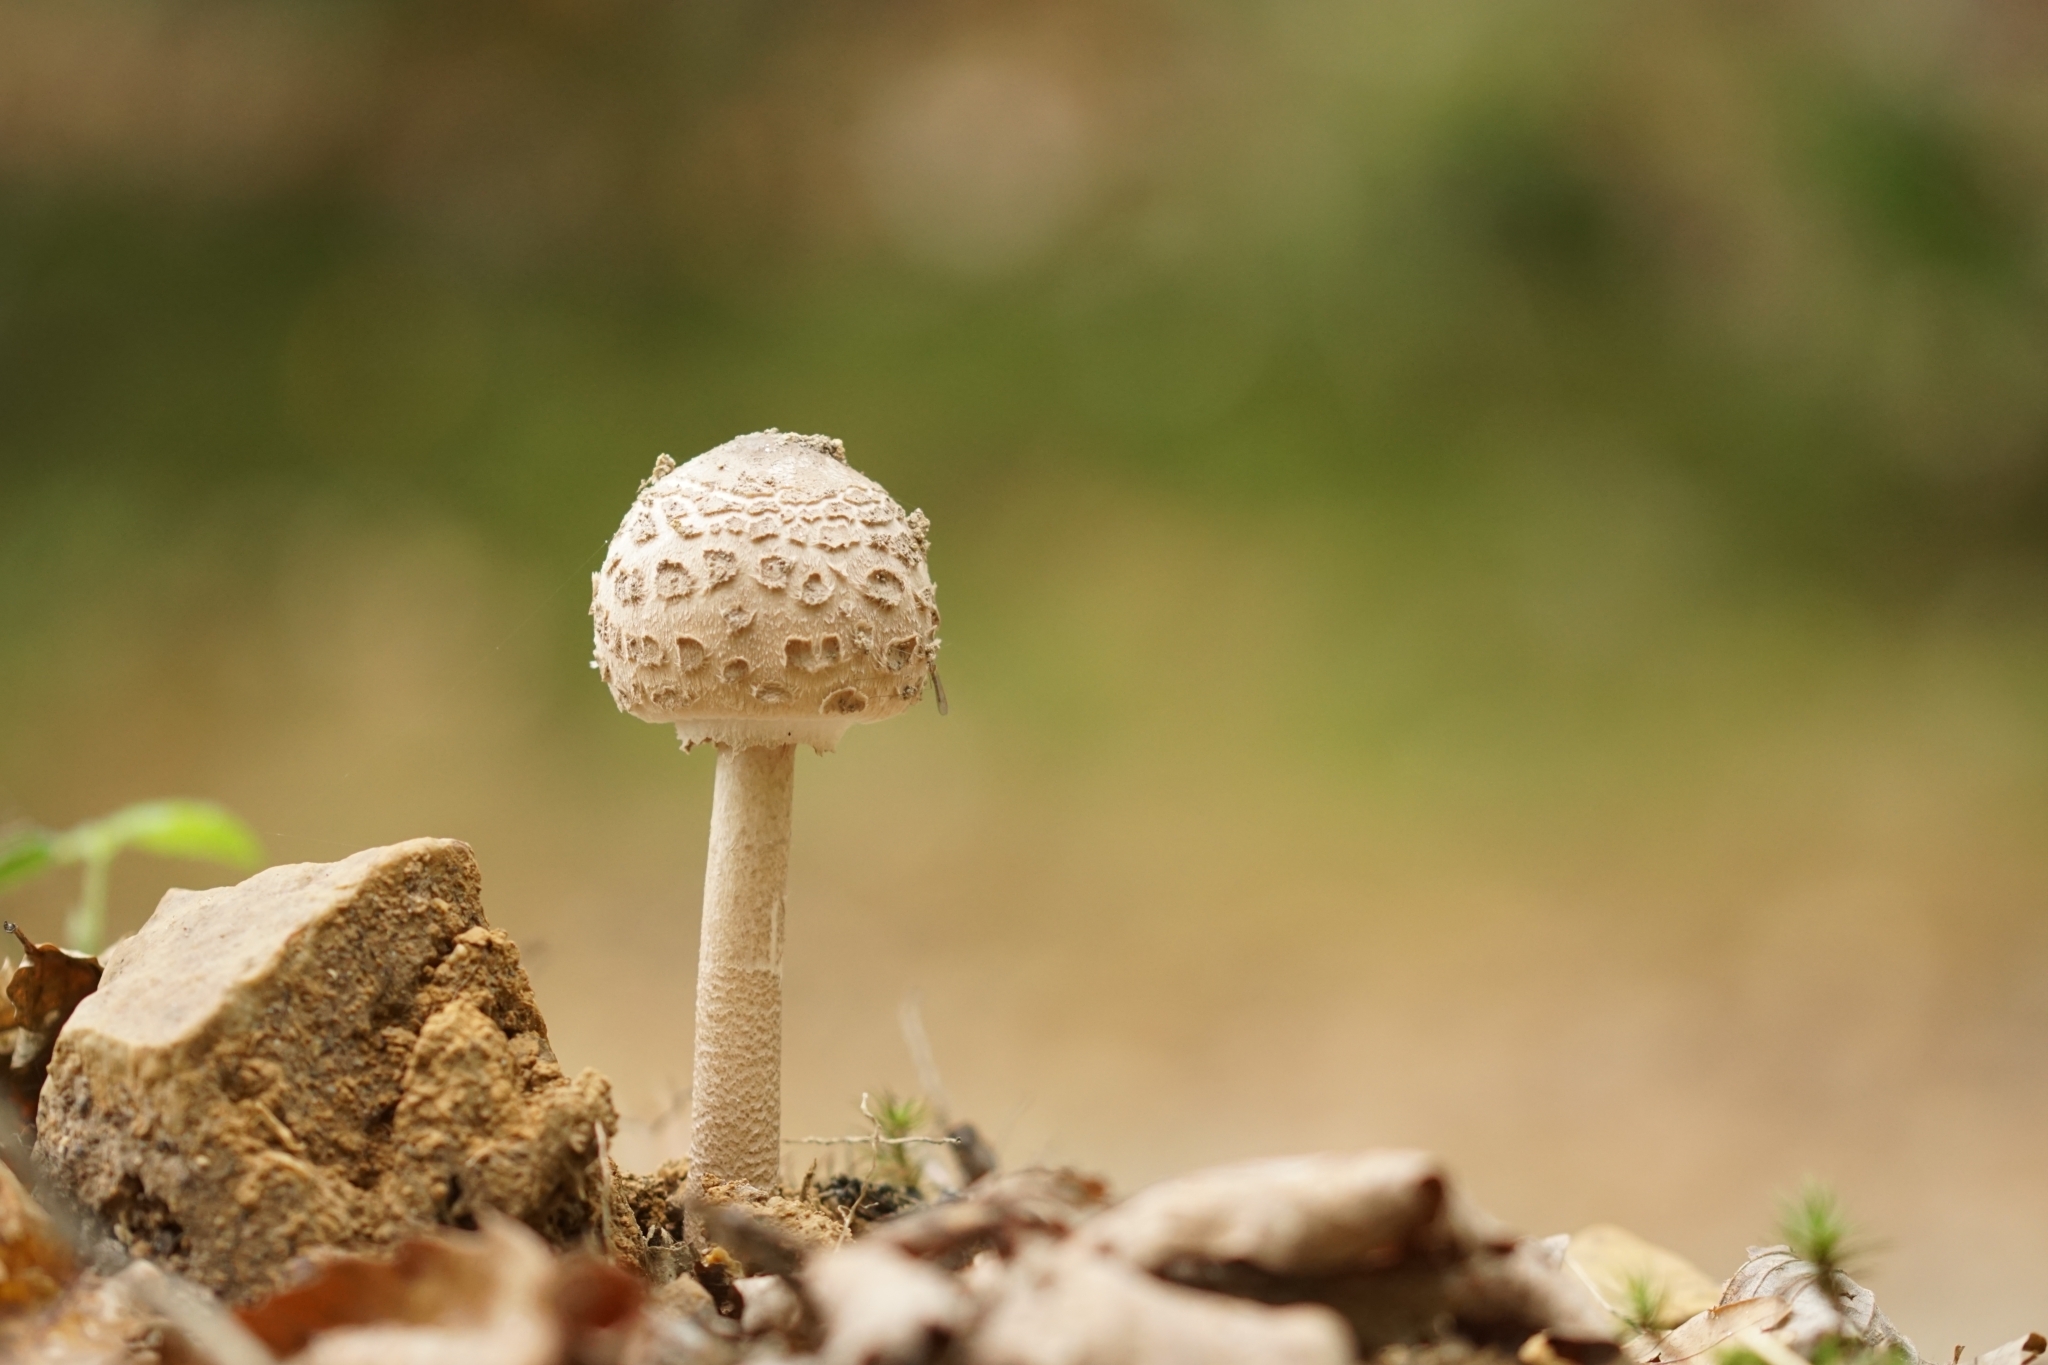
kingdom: Fungi
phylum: Basidiomycota
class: Agaricomycetes
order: Agaricales
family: Agaricaceae
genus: Macrolepiota
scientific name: Macrolepiota procera
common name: Parasol
